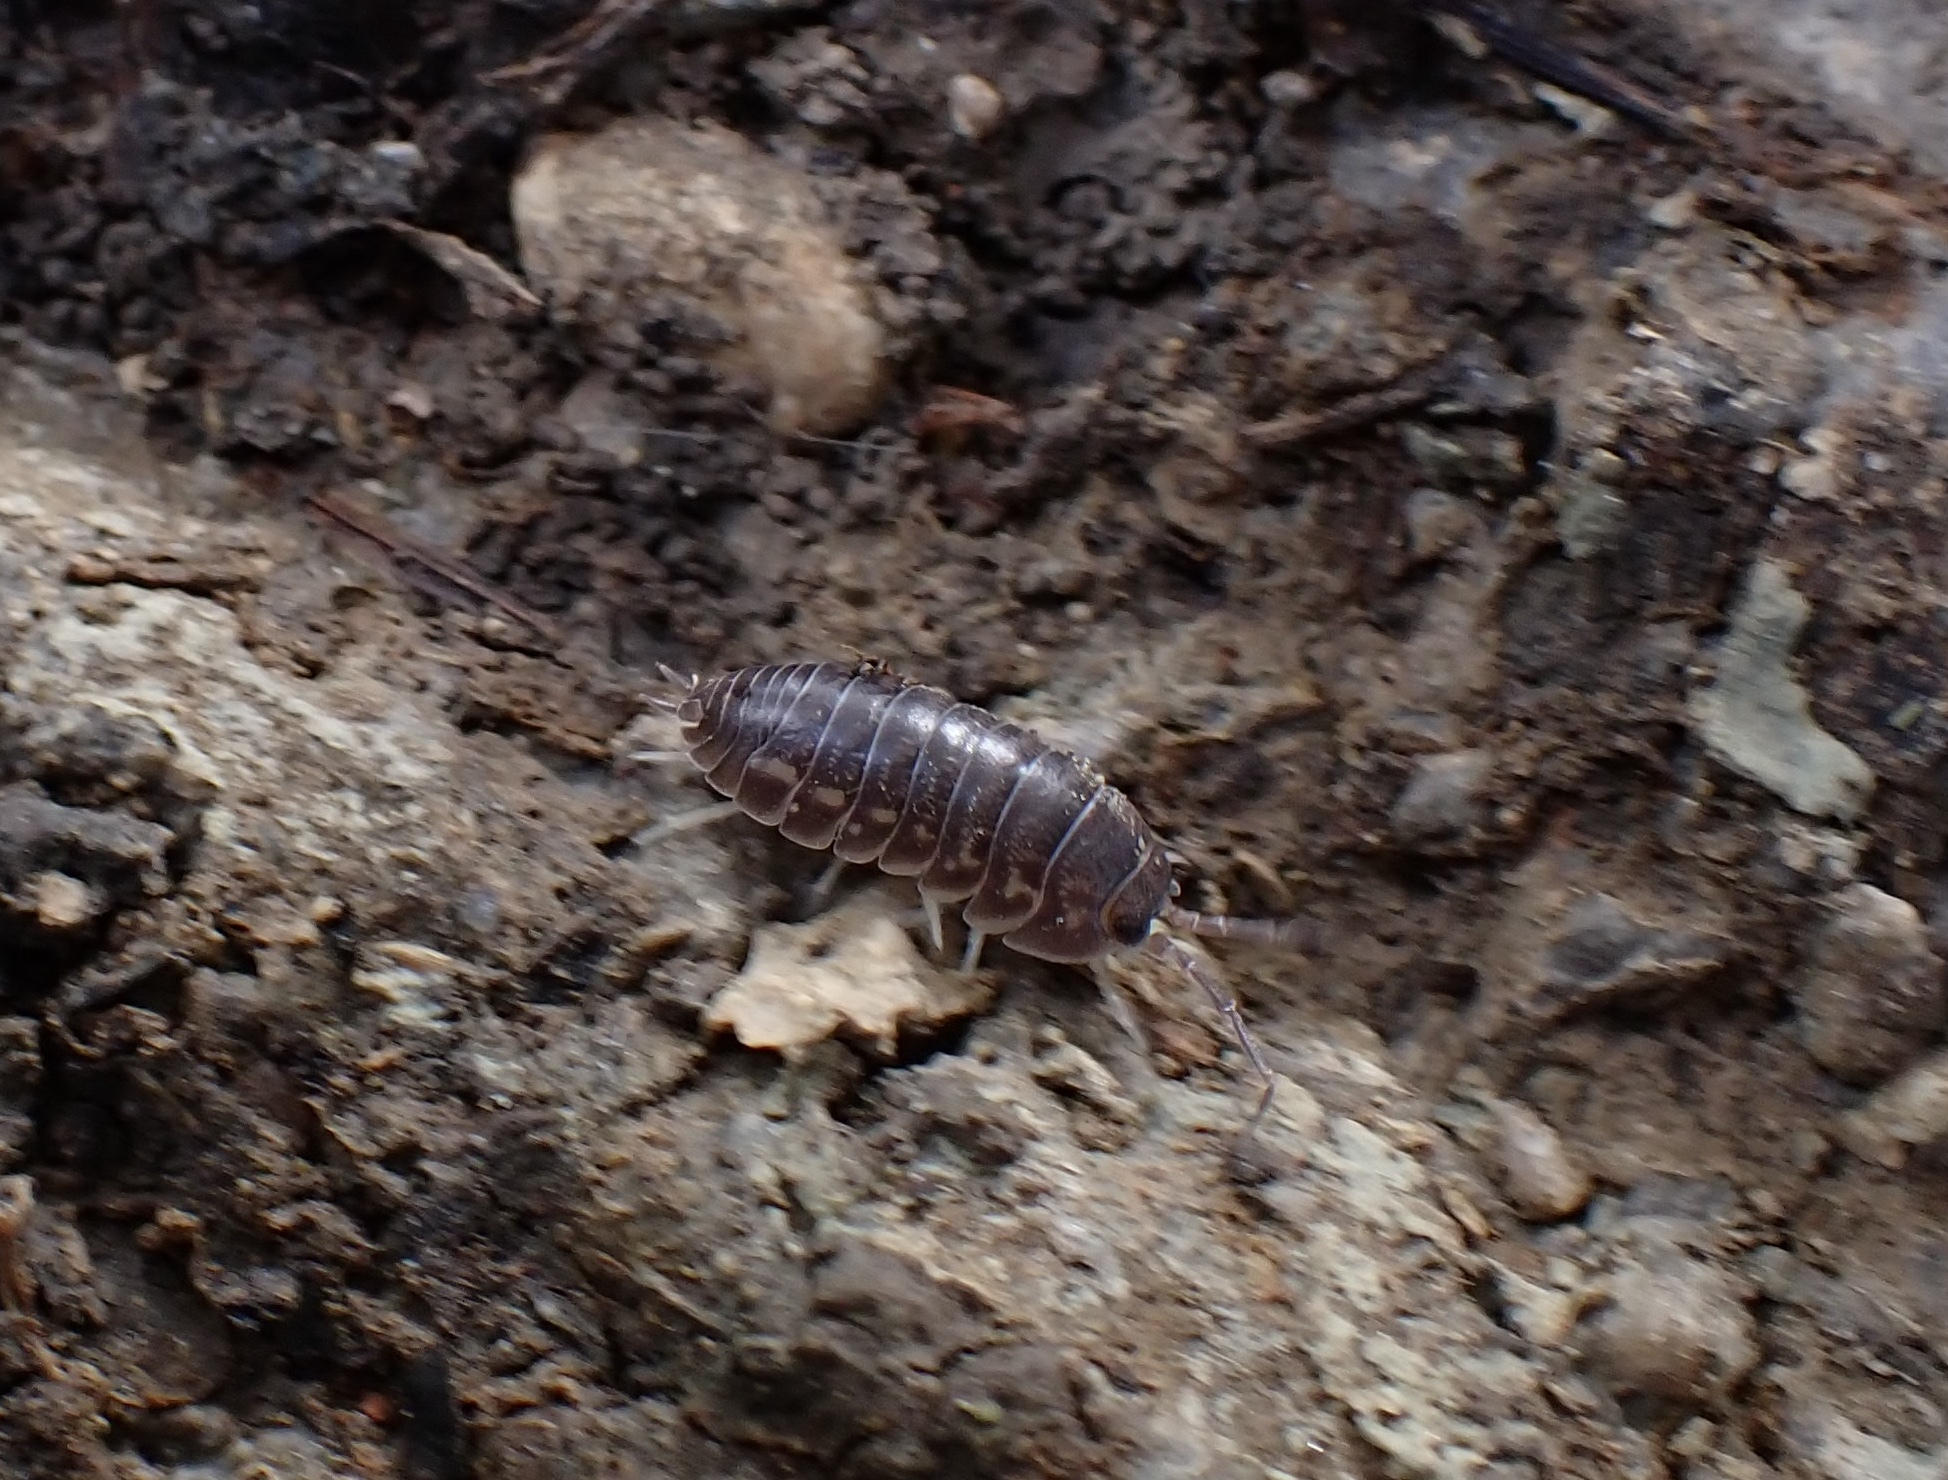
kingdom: Animalia
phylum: Arthropoda
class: Malacostraca
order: Isopoda
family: Cylisticidae
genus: Cylisticus
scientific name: Cylisticus convexus
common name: Curly woodlouse
